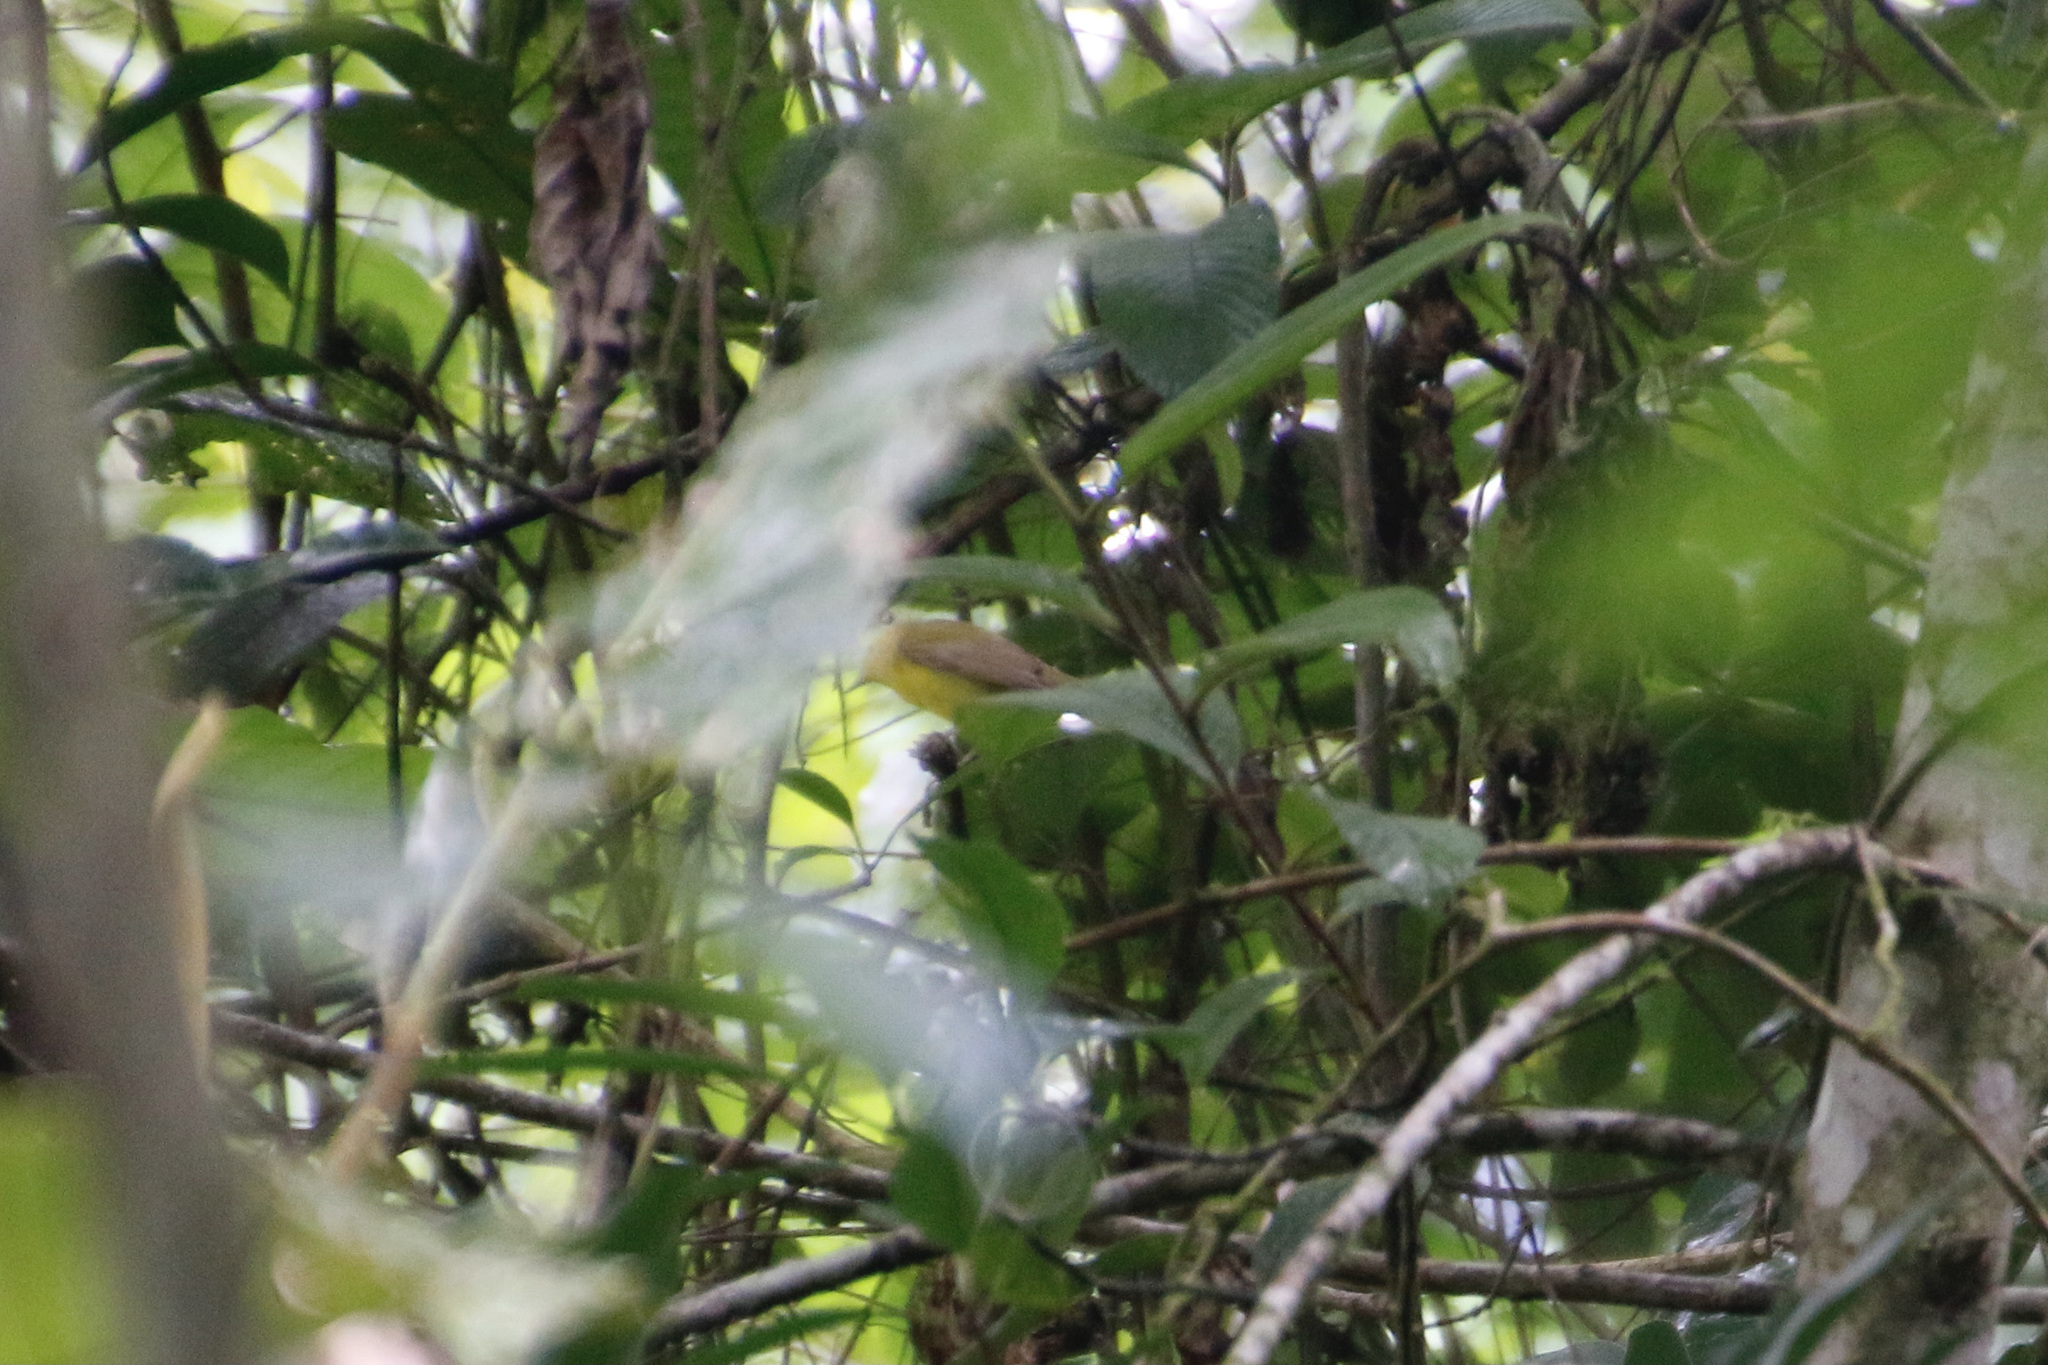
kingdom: Animalia
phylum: Chordata
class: Aves
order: Passeriformes
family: Parulidae
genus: Setophaga
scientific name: Setophaga citrina
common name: Hooded warbler
